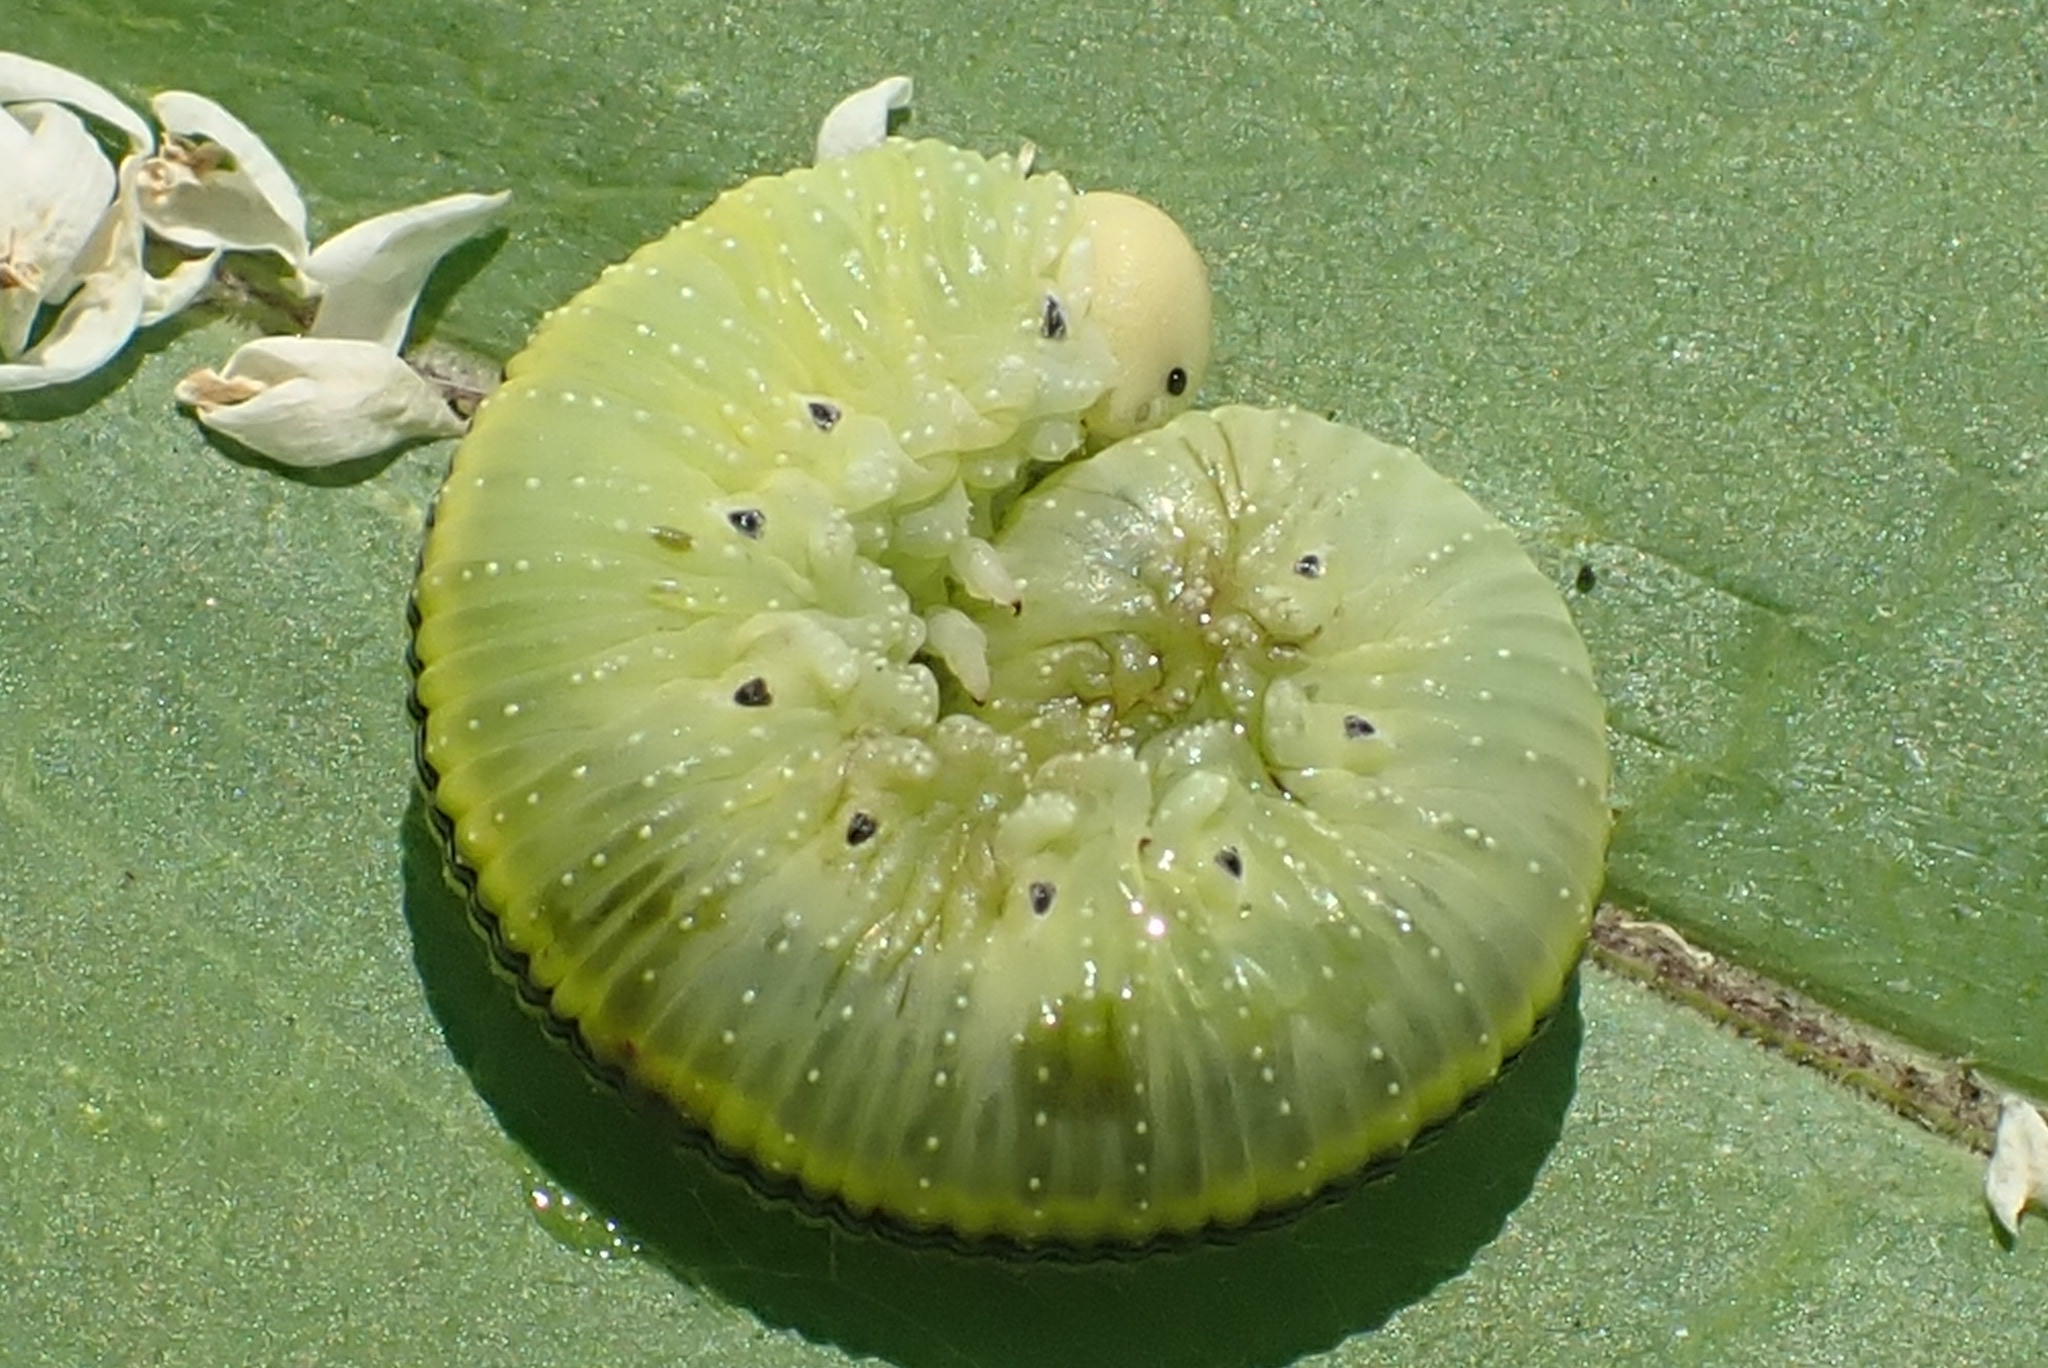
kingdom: Animalia
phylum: Arthropoda
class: Insecta
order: Hymenoptera
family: Cimbicidae
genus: Cimbex
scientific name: Cimbex femoratus
